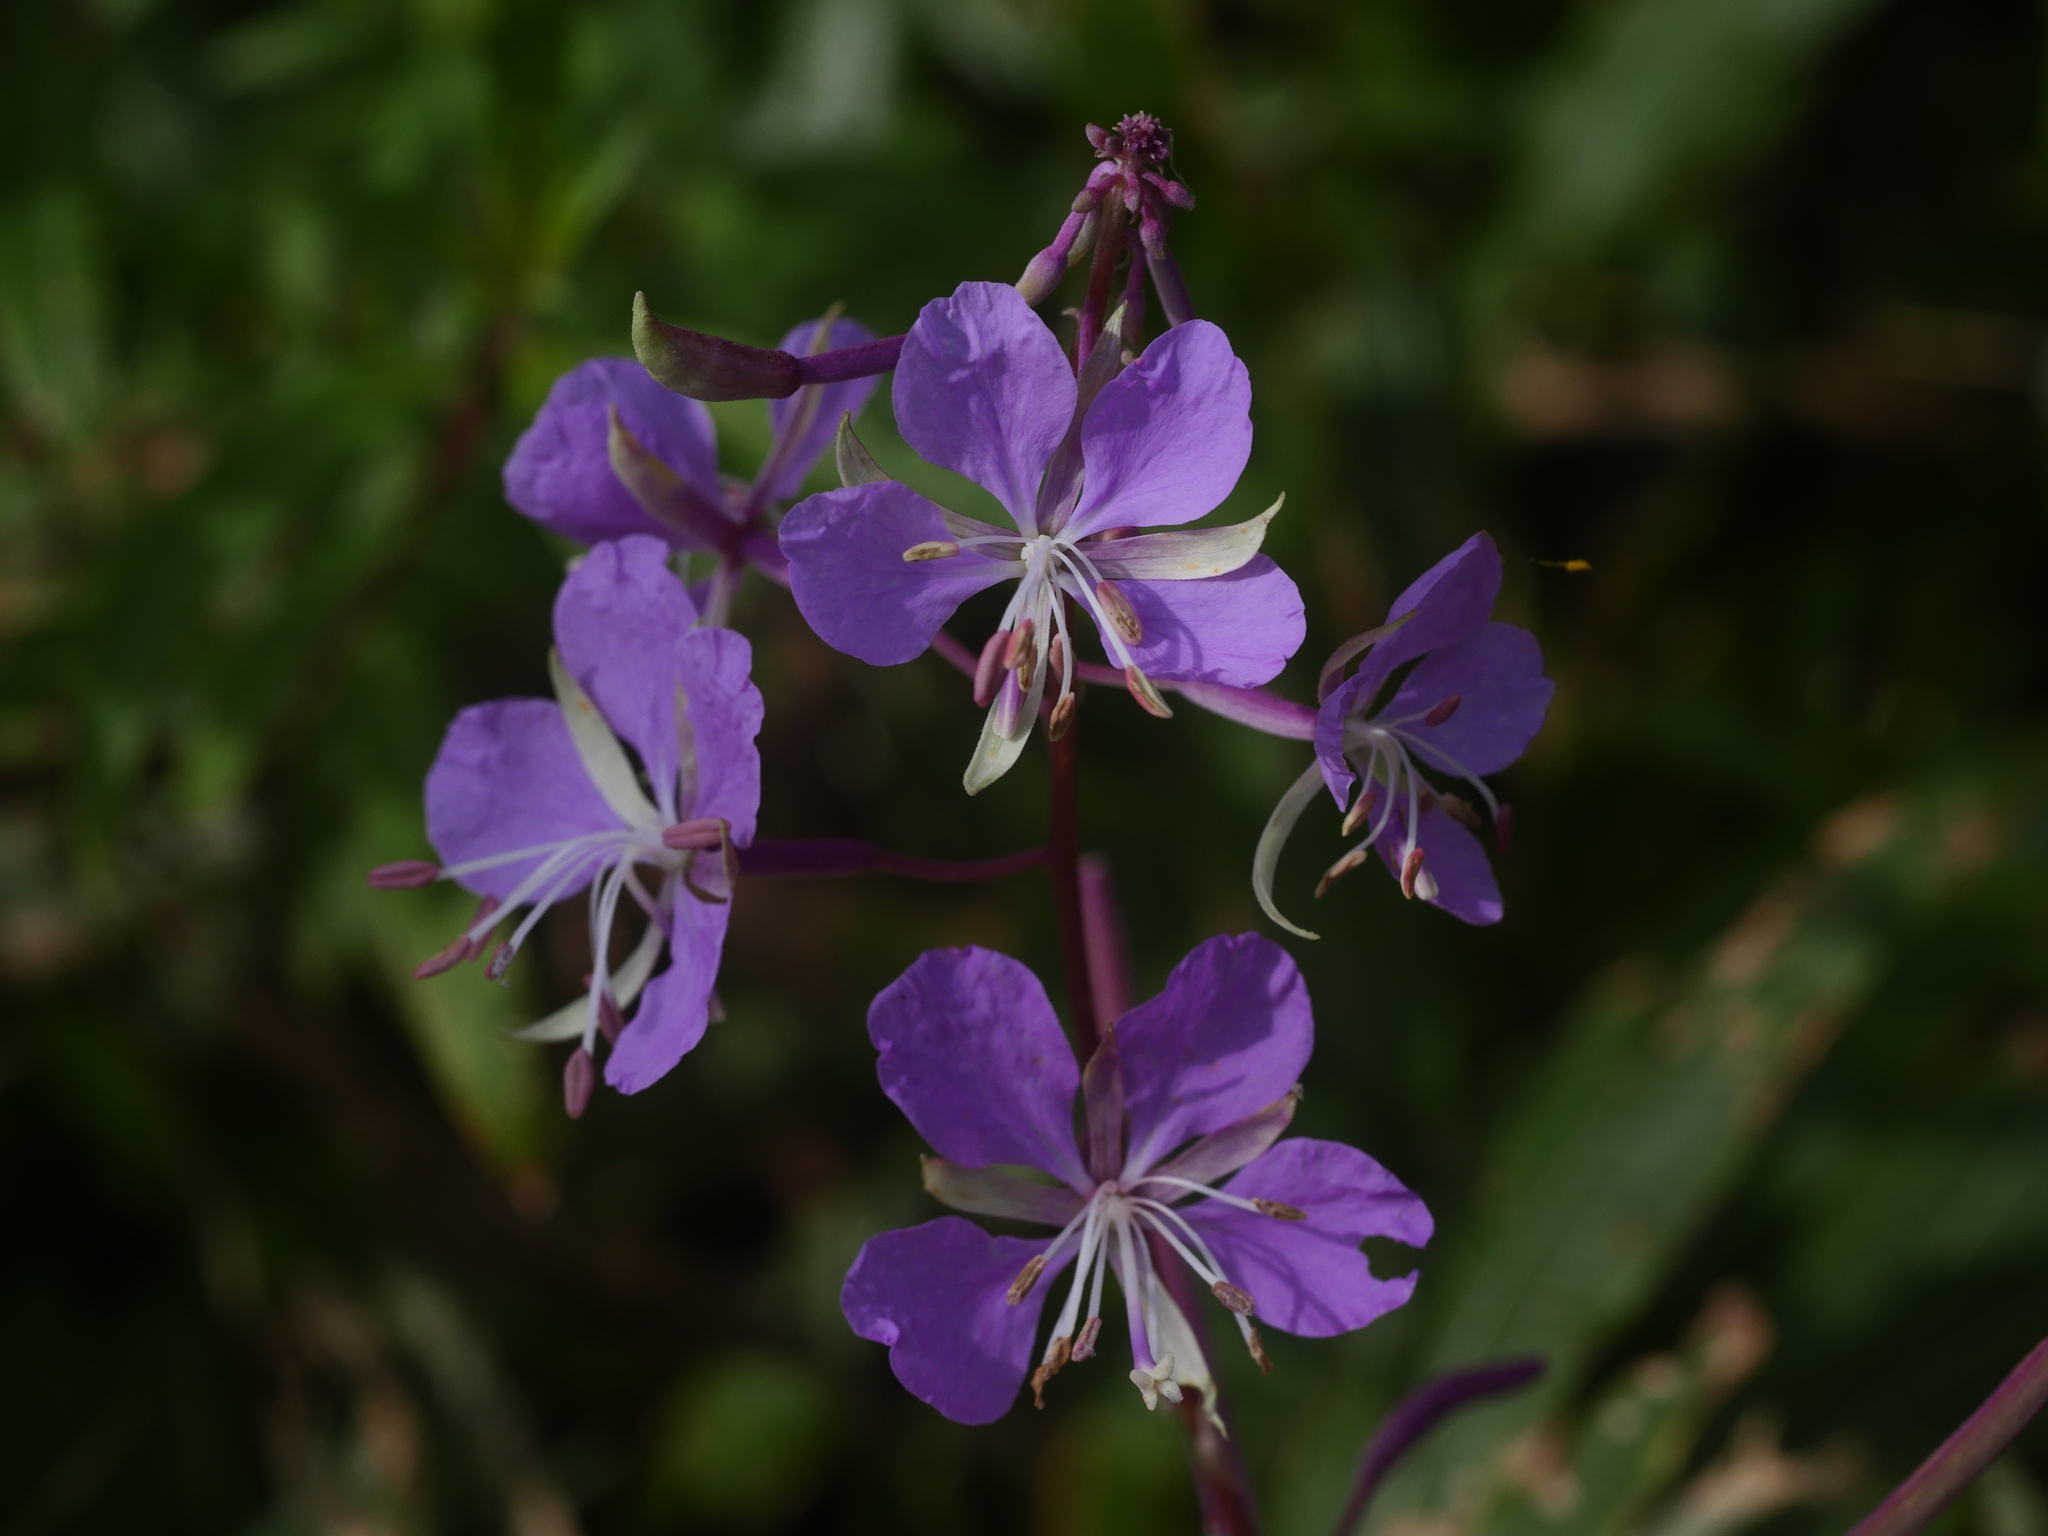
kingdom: Plantae
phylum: Tracheophyta
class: Magnoliopsida
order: Myrtales
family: Onagraceae
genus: Chamaenerion
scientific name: Chamaenerion angustifolium
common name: Fireweed
